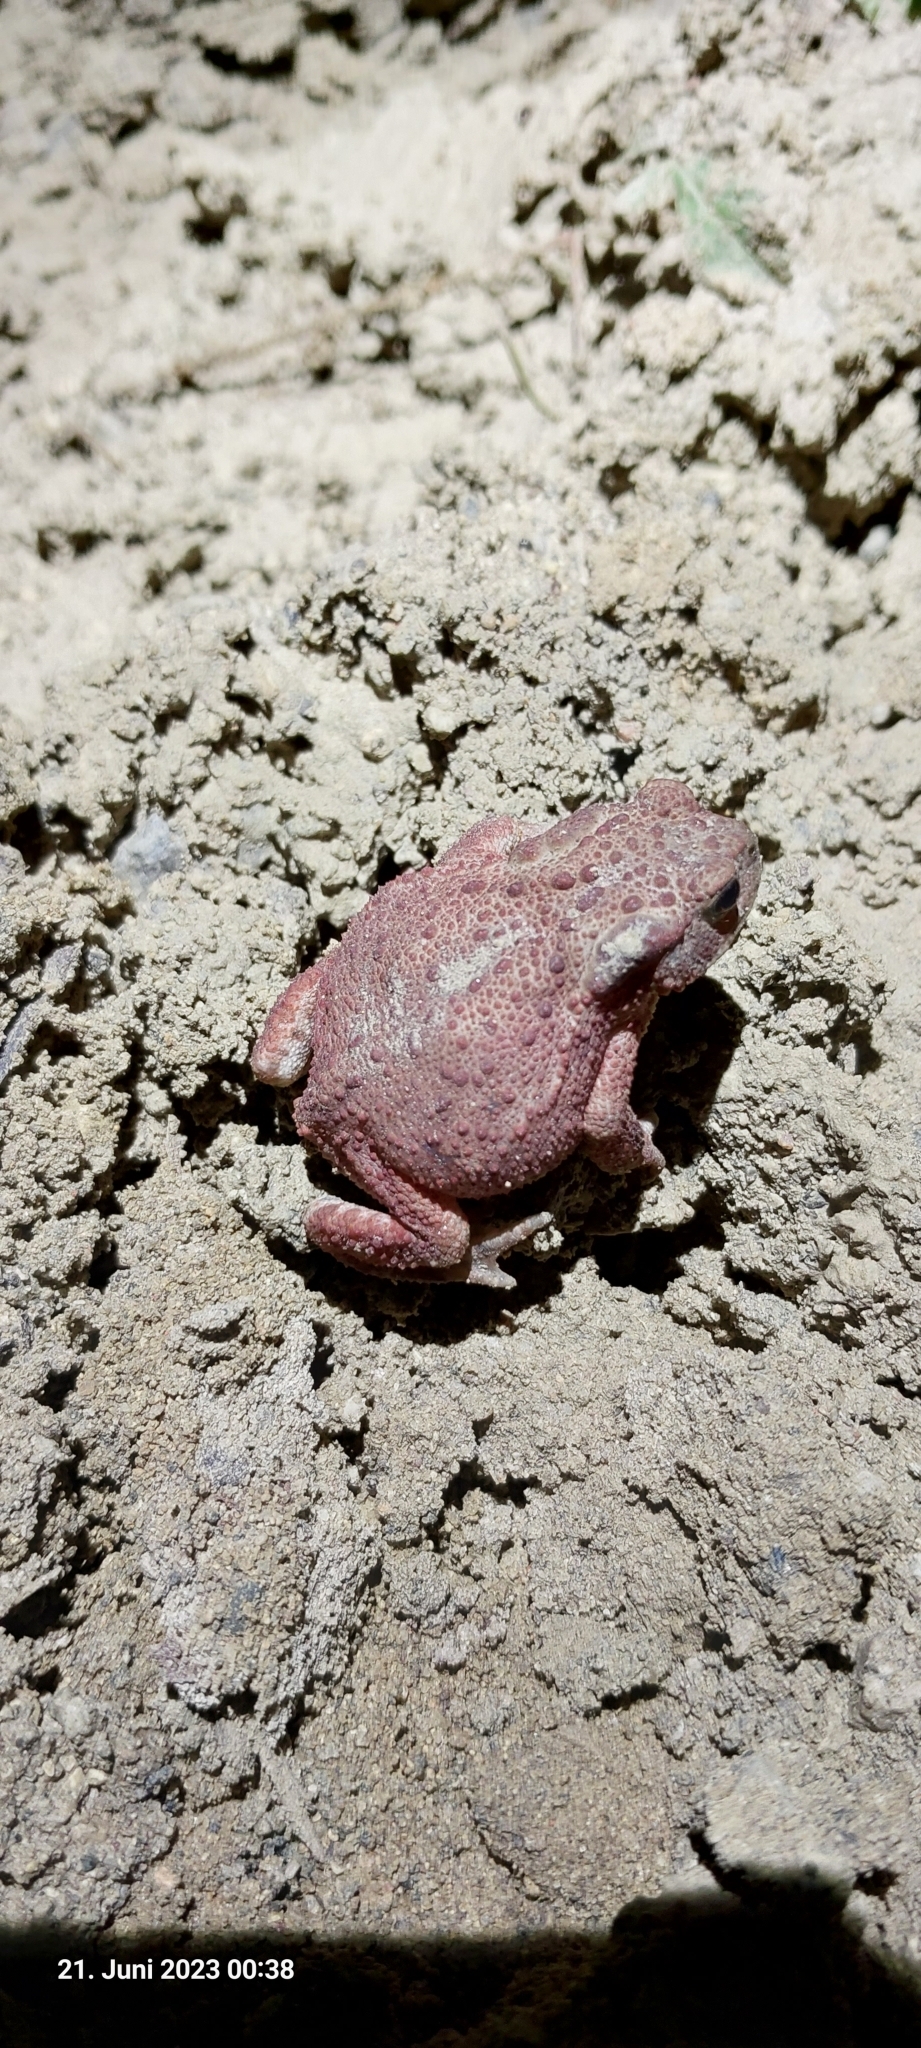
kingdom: Animalia
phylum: Chordata
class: Amphibia
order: Anura
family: Bufonidae
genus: Bufo
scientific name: Bufo bufo
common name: Common toad
